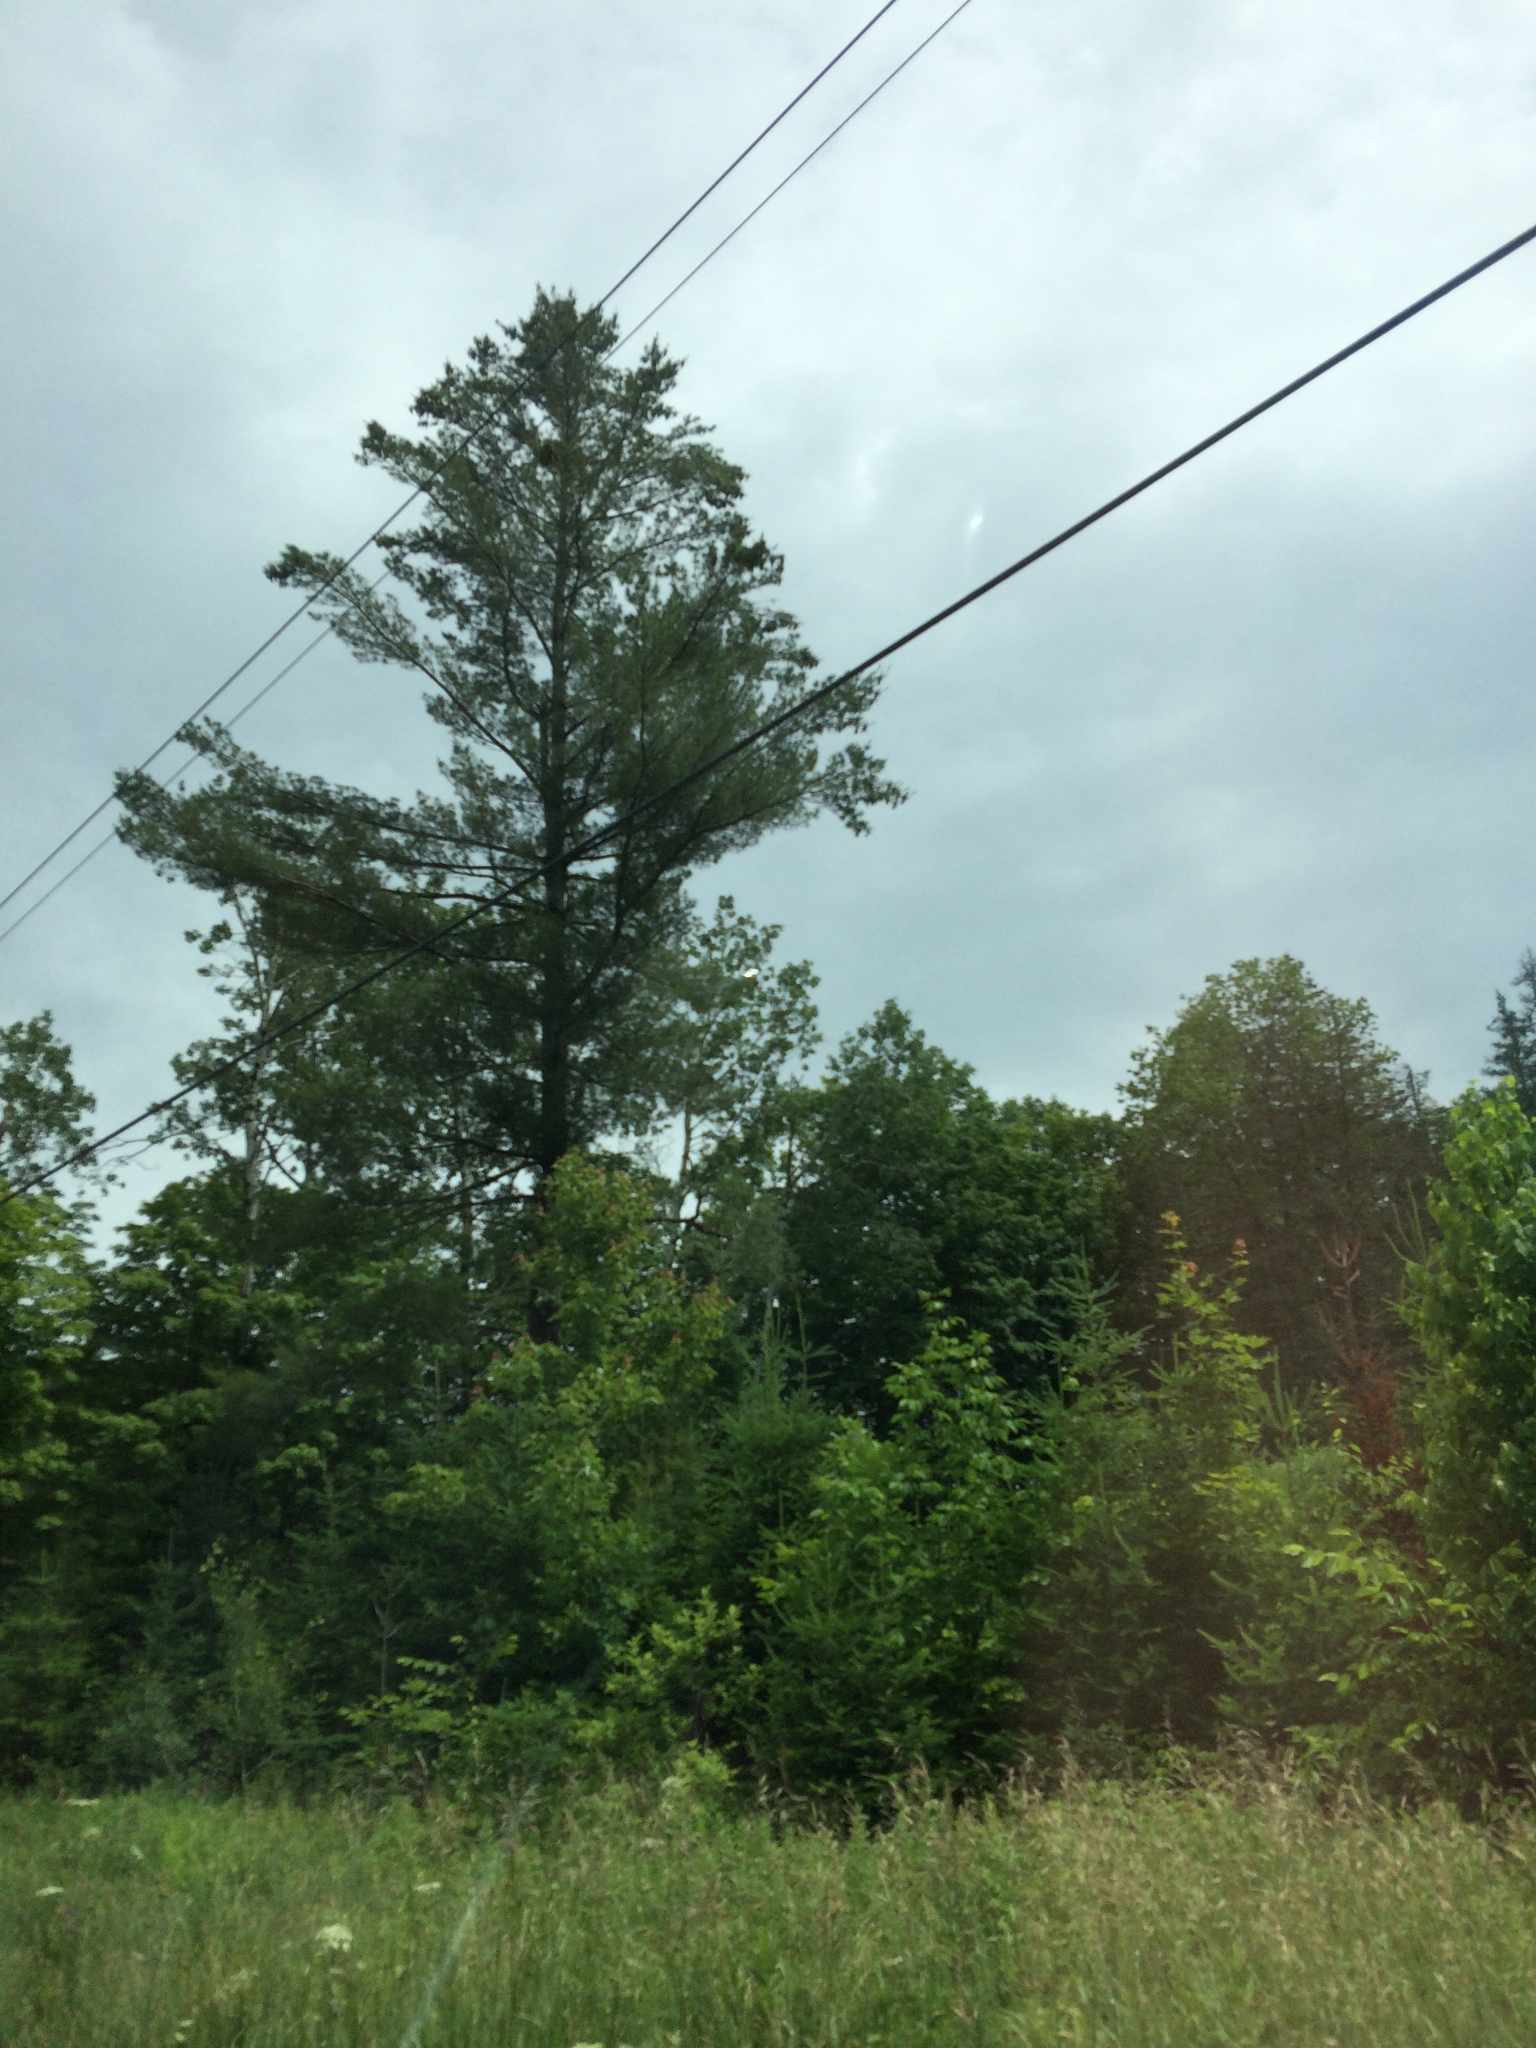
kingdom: Plantae
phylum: Tracheophyta
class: Pinopsida
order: Pinales
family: Pinaceae
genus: Pinus
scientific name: Pinus strobus
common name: Weymouth pine
